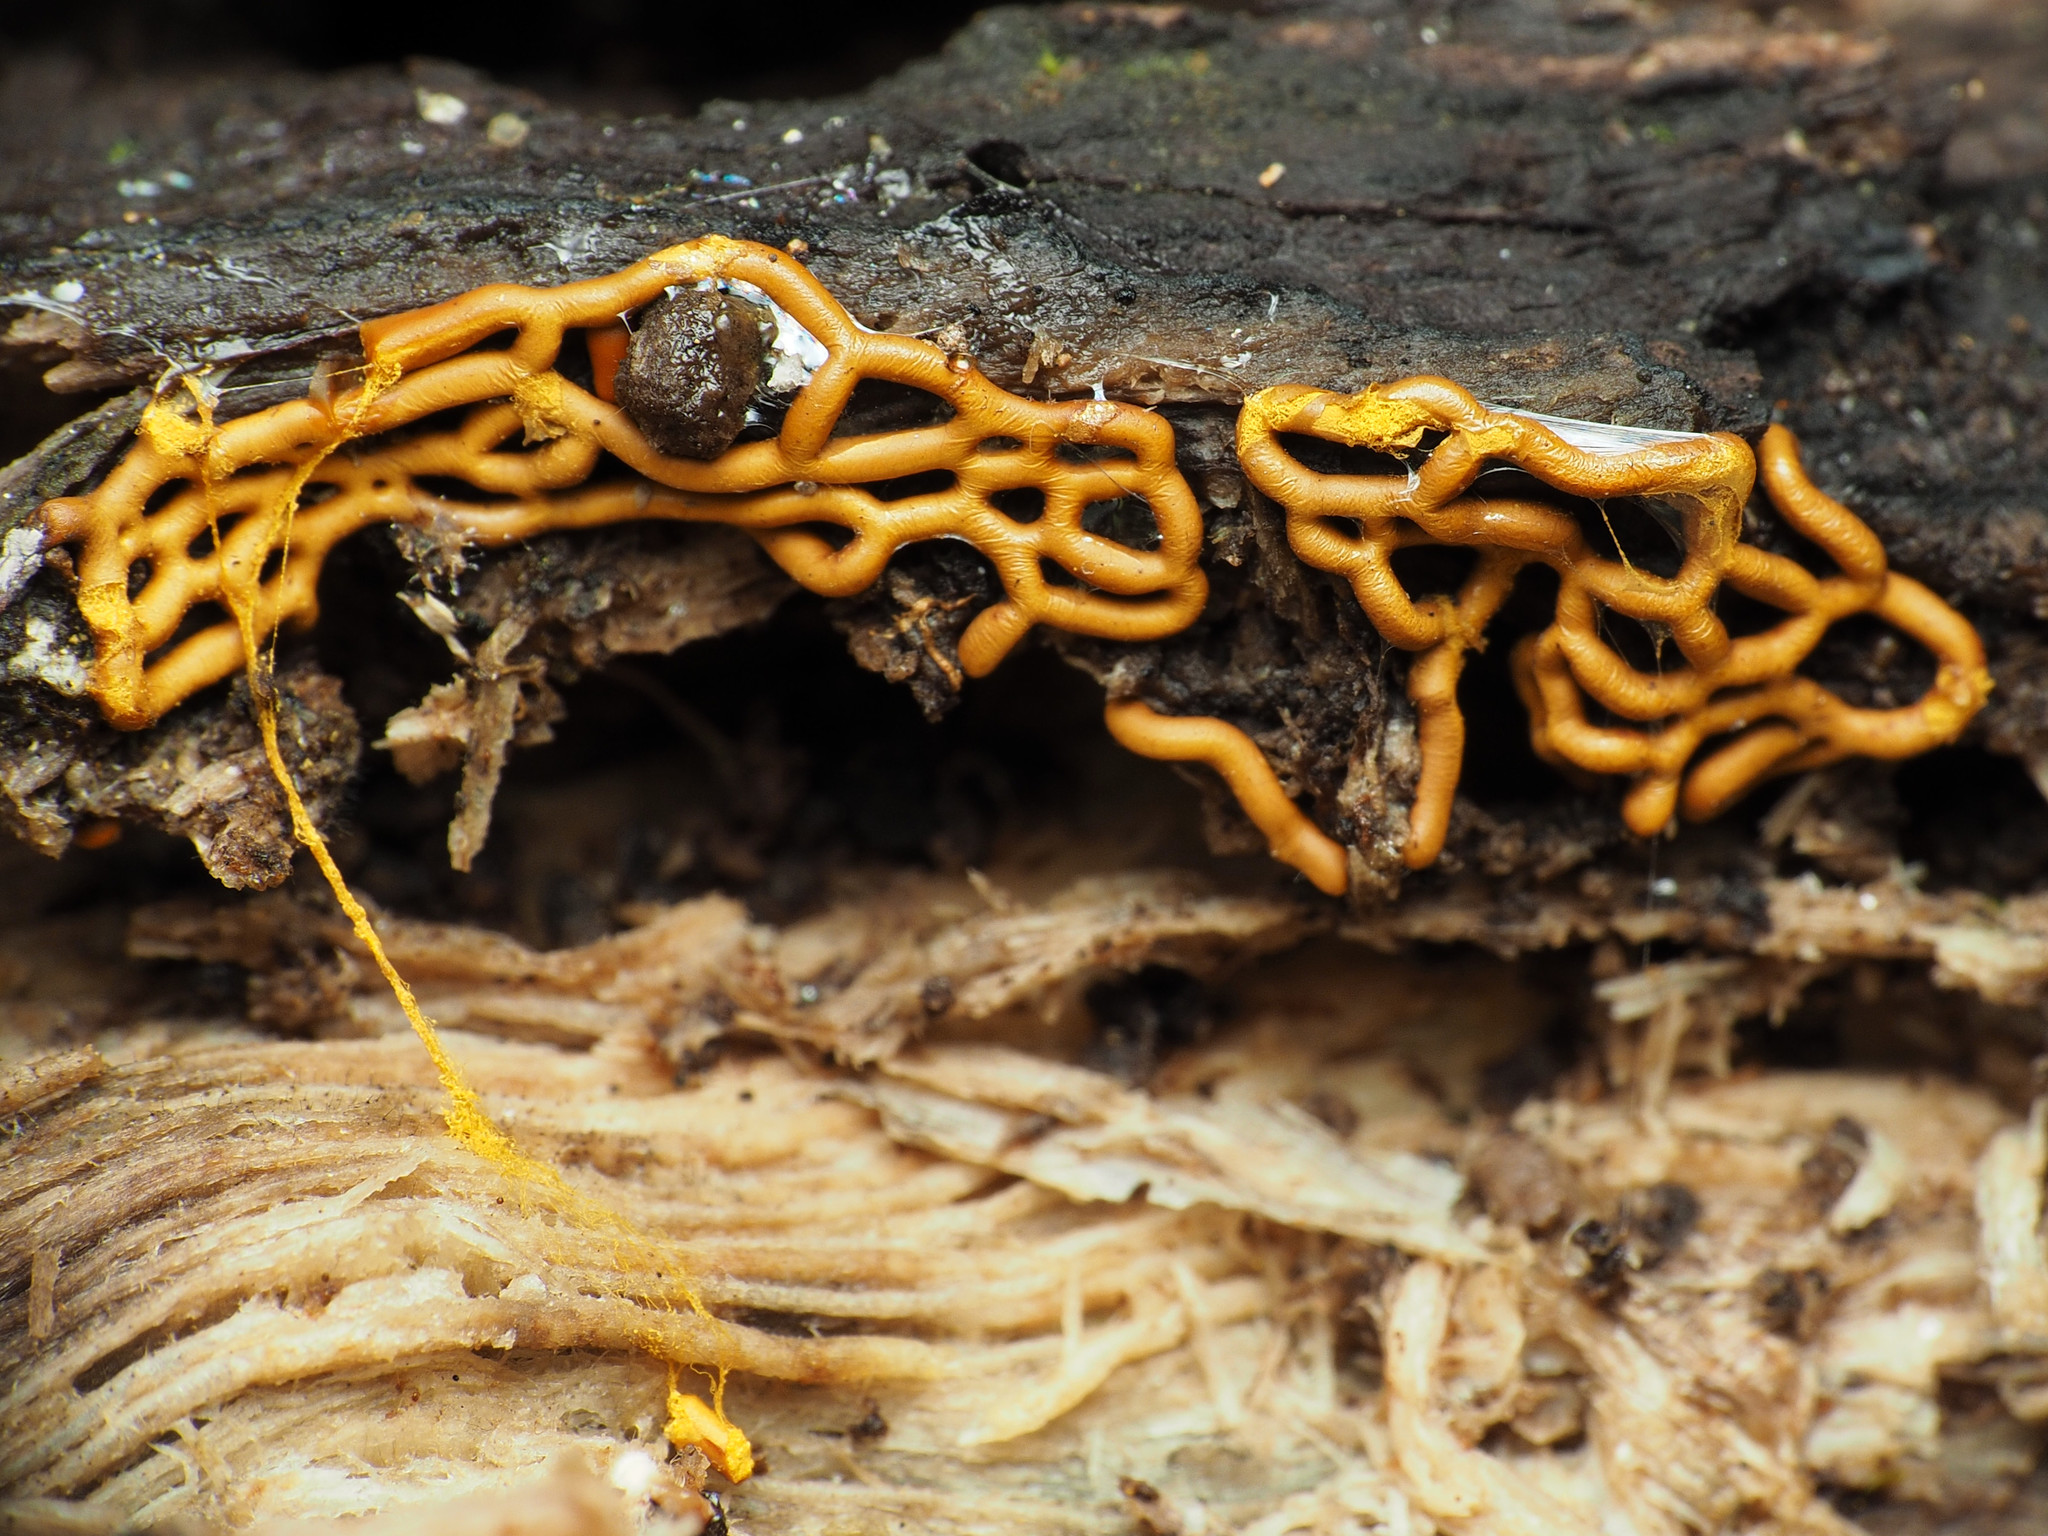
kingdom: Protozoa
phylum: Mycetozoa
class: Myxomycetes
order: Trichiales
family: Arcyriaceae
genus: Hemitrichia
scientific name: Hemitrichia serpula
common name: Pretzel slime mold
